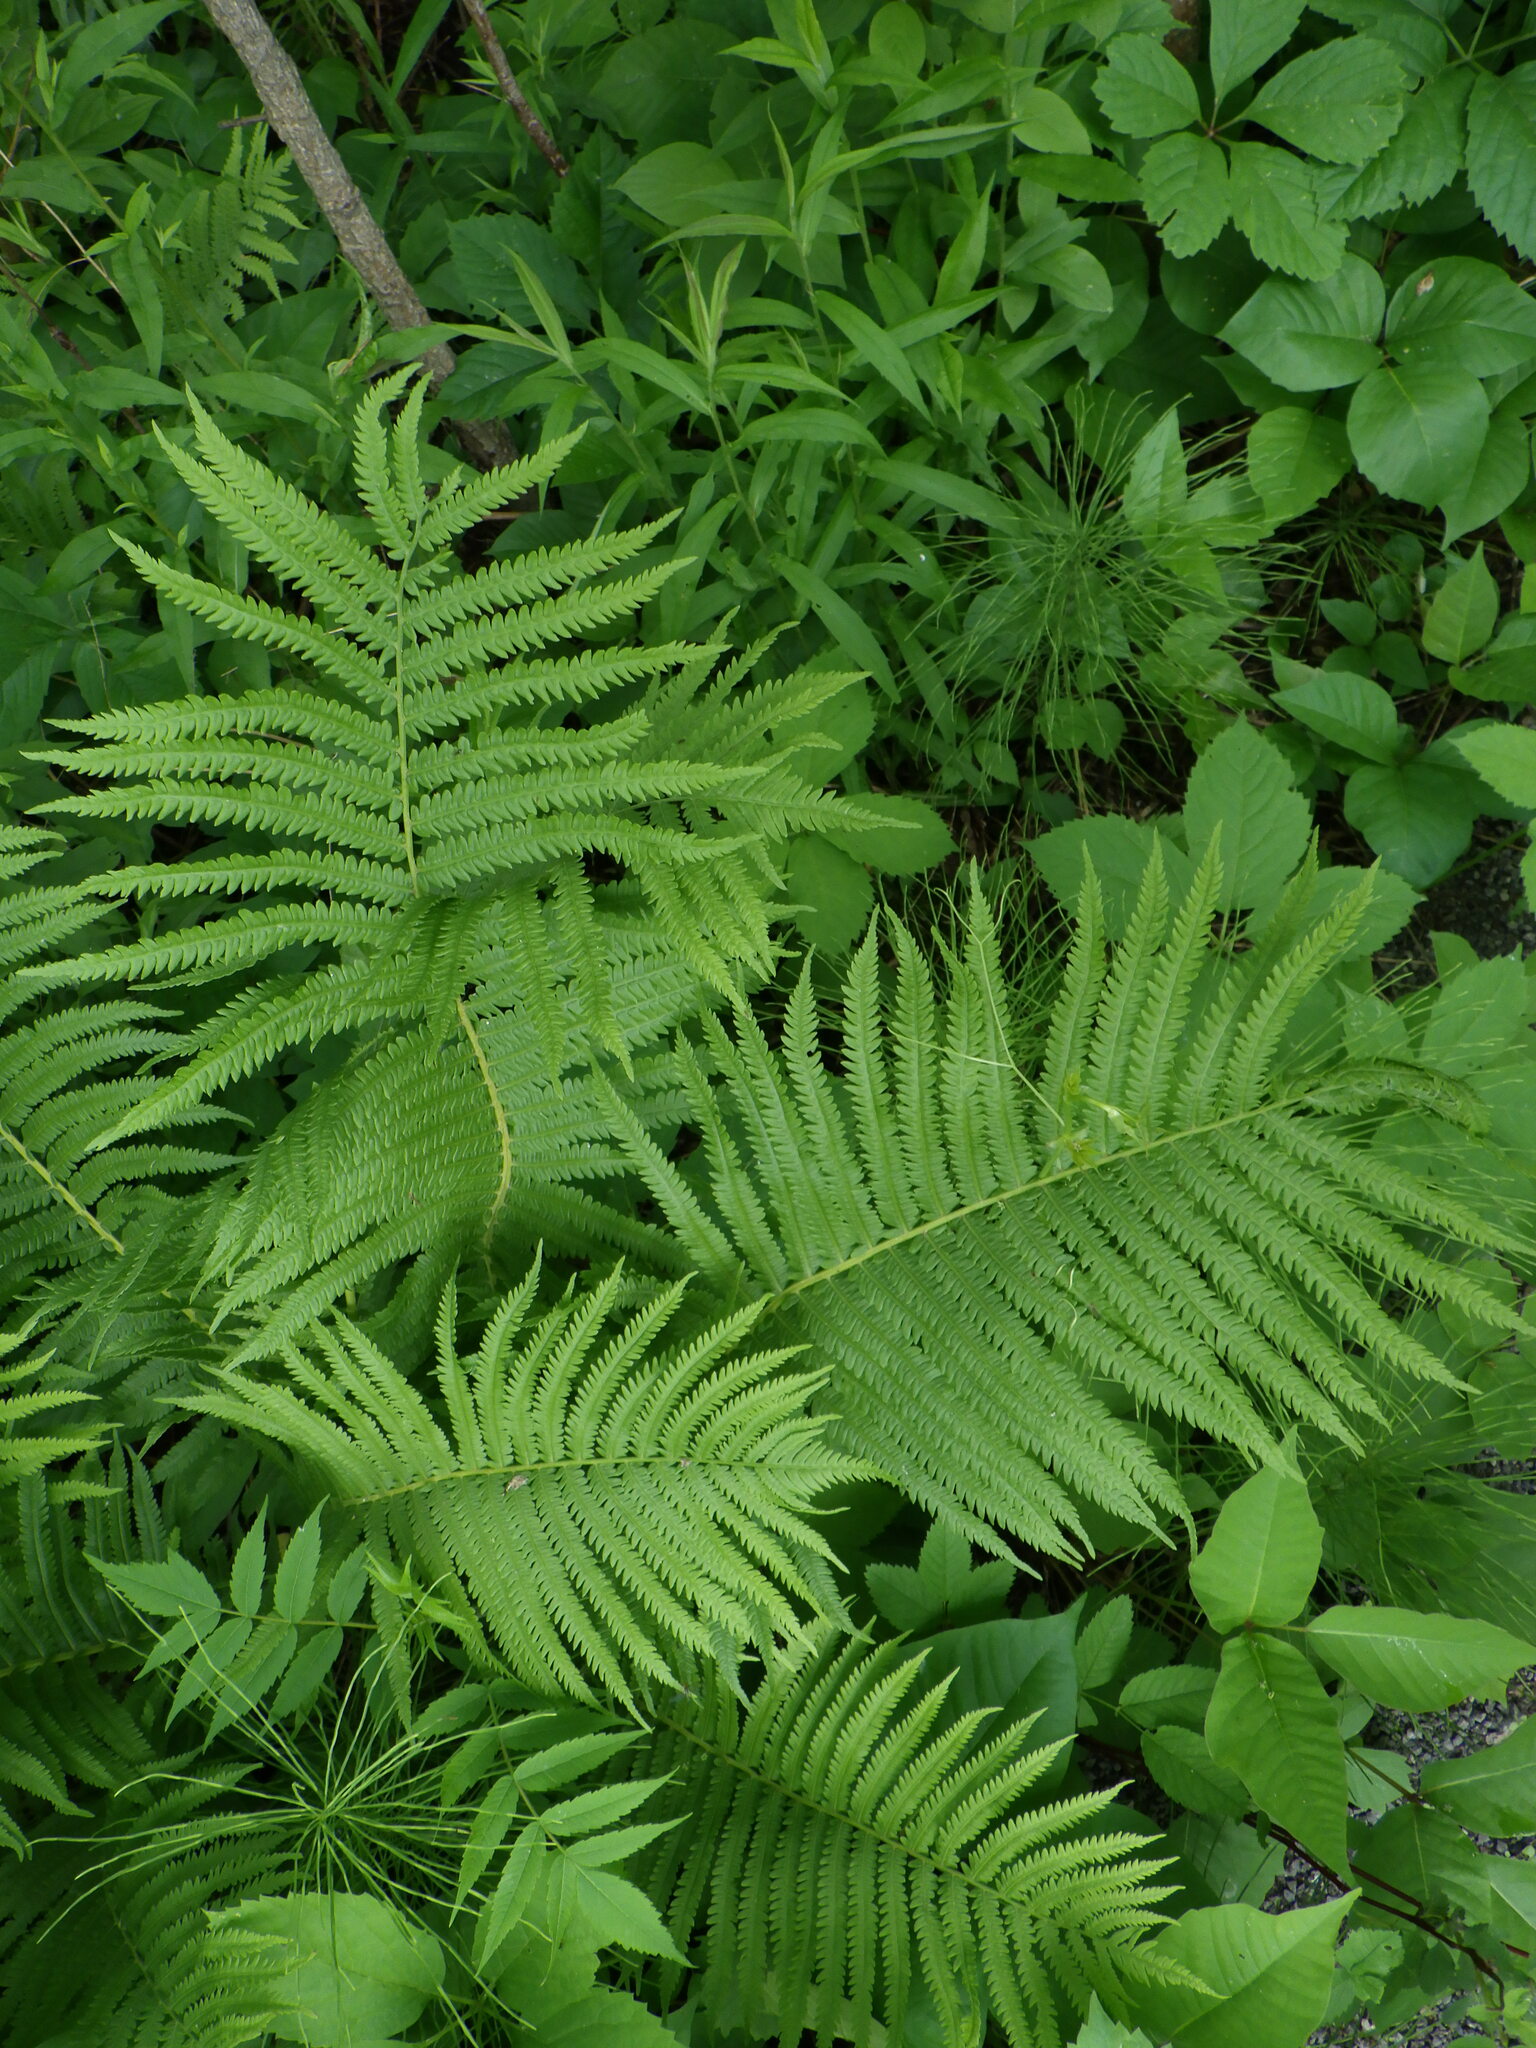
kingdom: Plantae
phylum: Tracheophyta
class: Polypodiopsida
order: Polypodiales
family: Onocleaceae
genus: Matteuccia
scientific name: Matteuccia struthiopteris
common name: Ostrich fern
